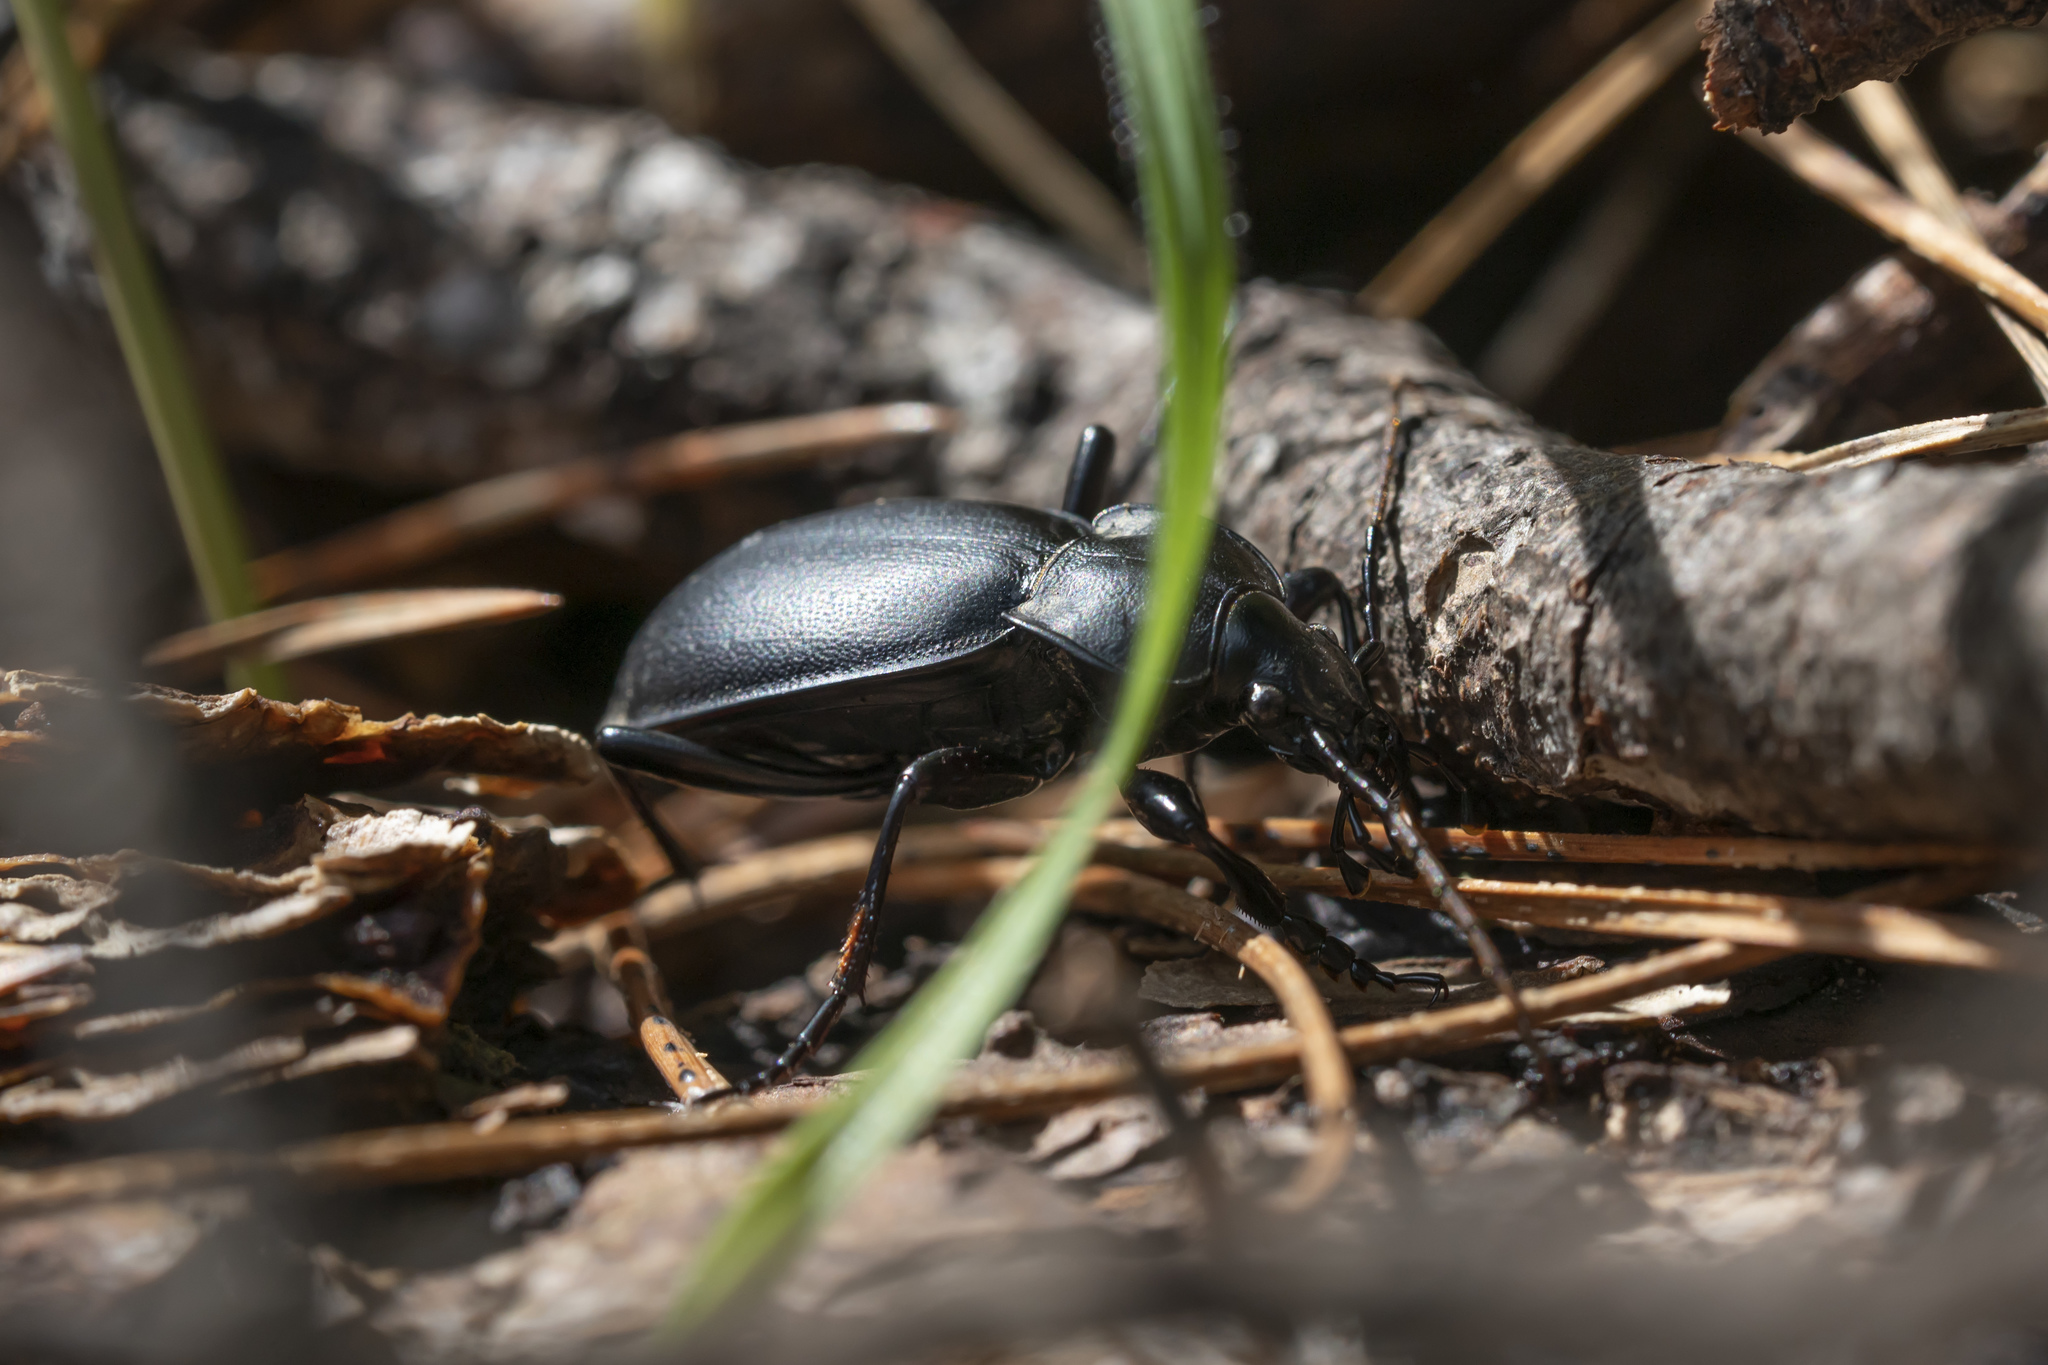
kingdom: Animalia
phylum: Arthropoda
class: Insecta
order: Coleoptera
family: Carabidae
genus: Carabus
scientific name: Carabus coriaceus
